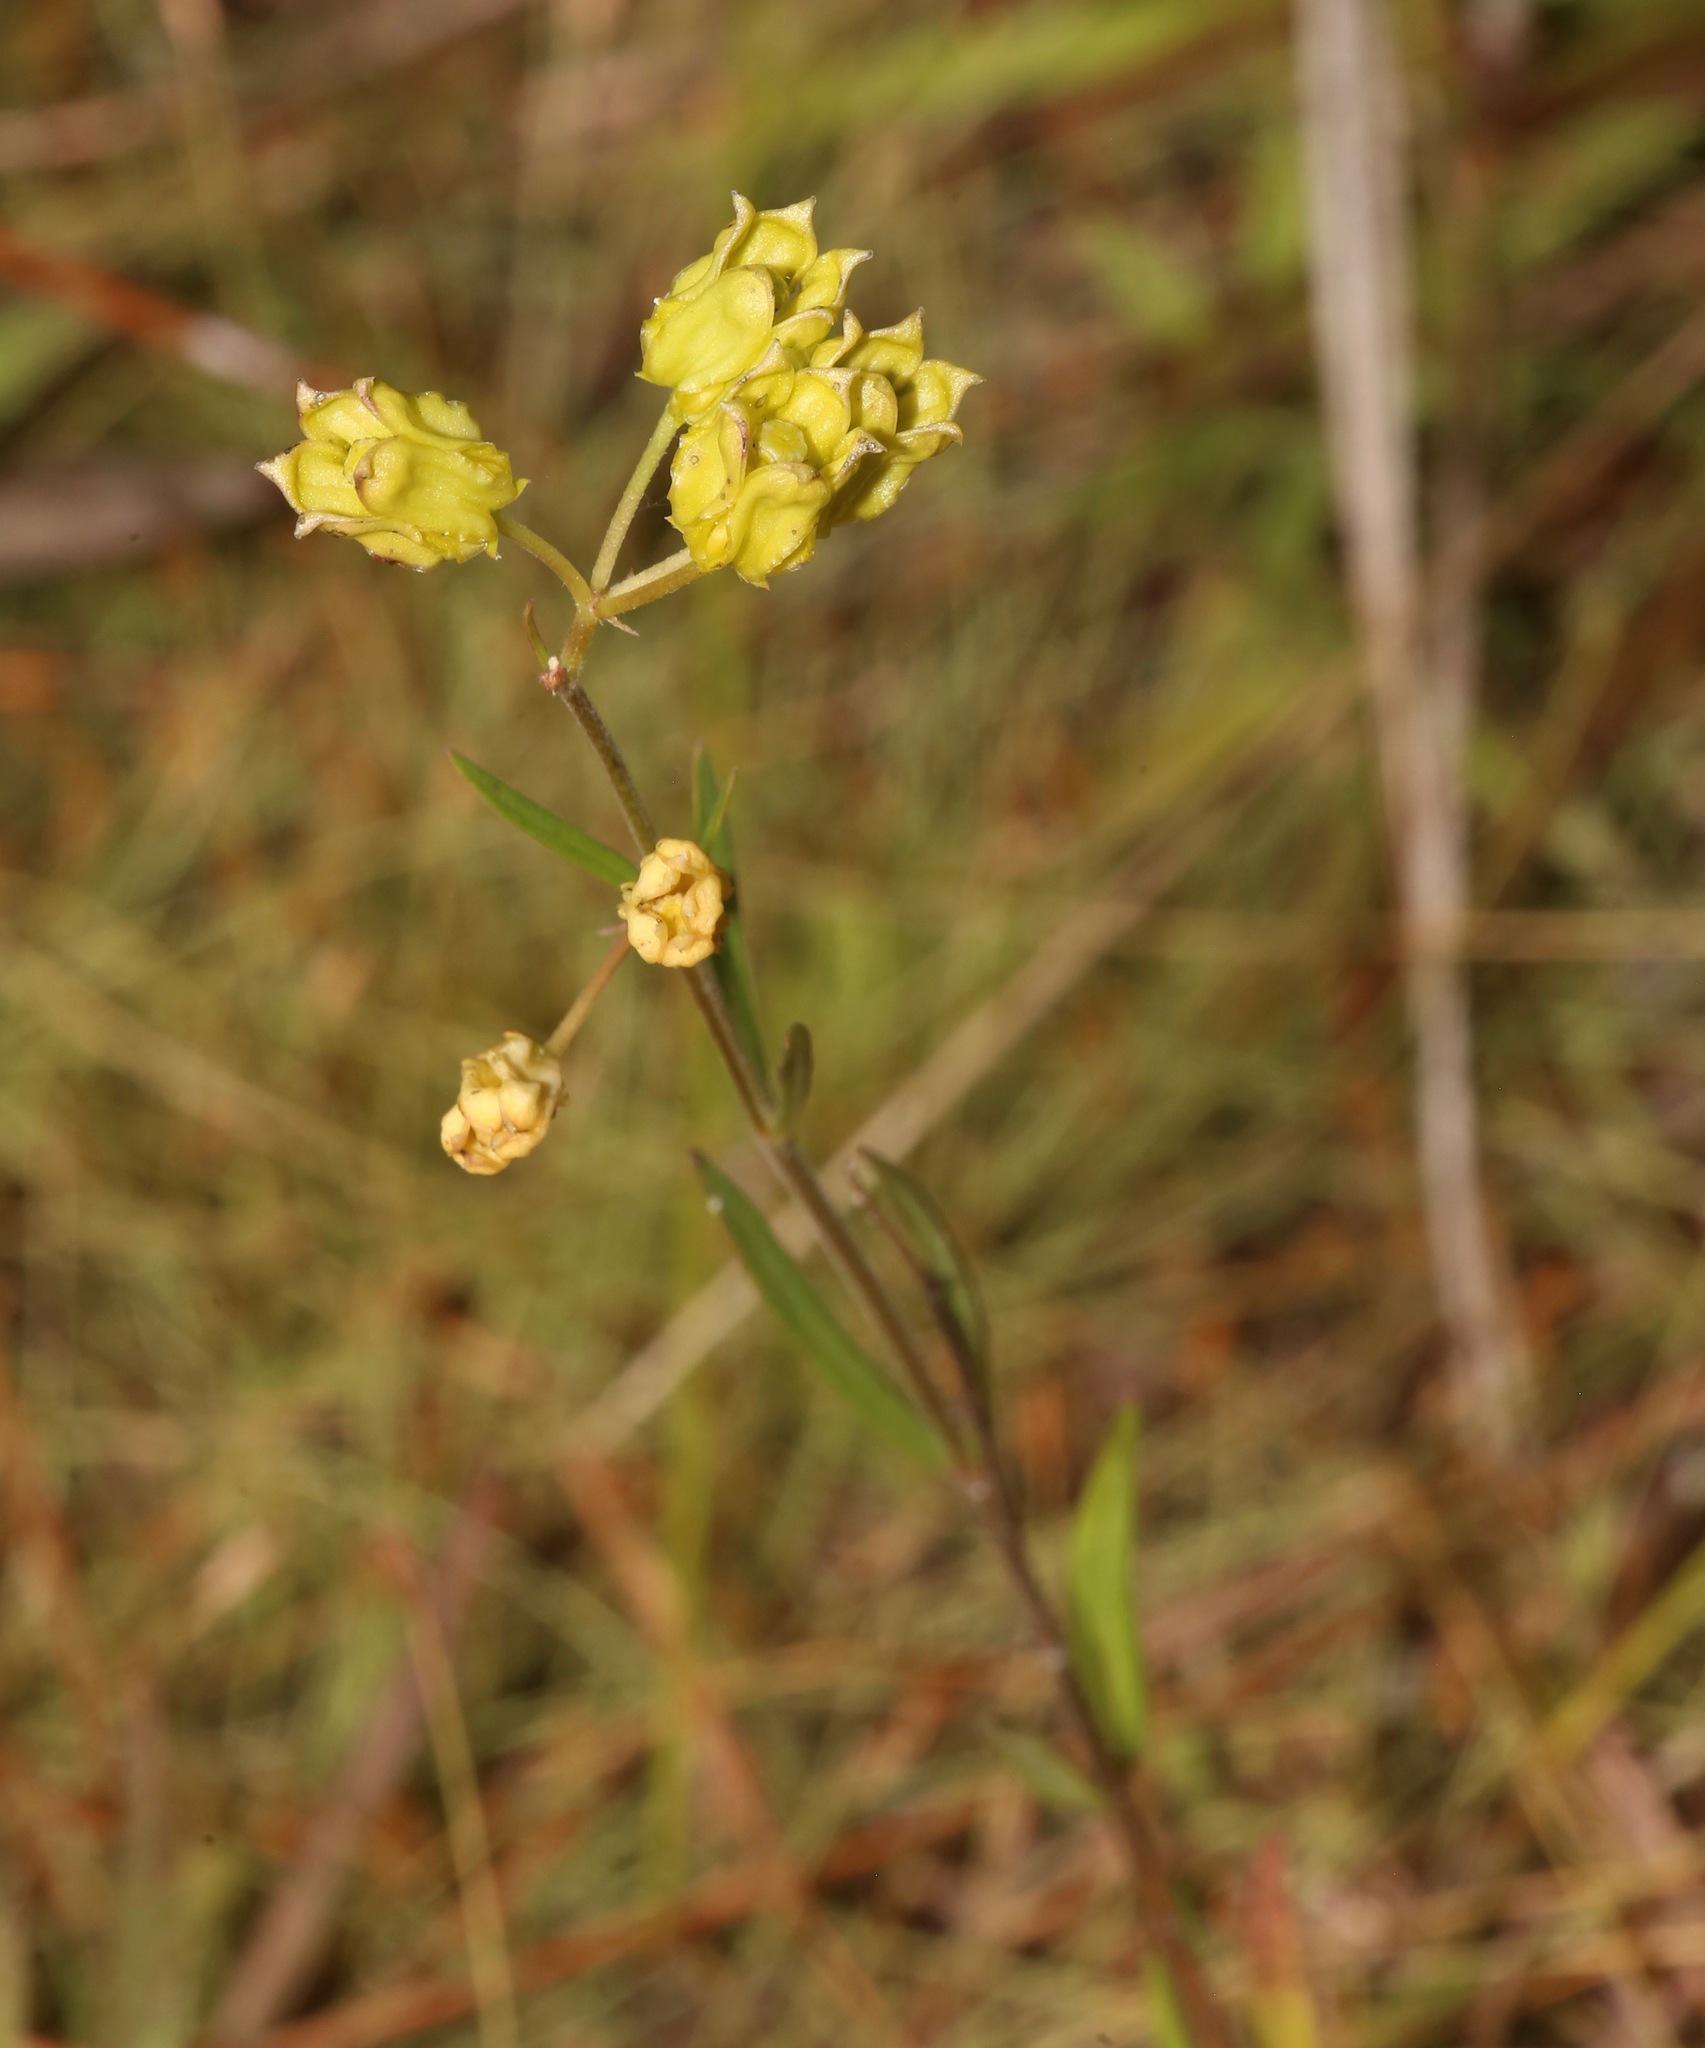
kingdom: Plantae
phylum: Tracheophyta
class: Magnoliopsida
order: Gentianales
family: Apocynaceae
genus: Asclepias
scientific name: Asclepias pedicellata
